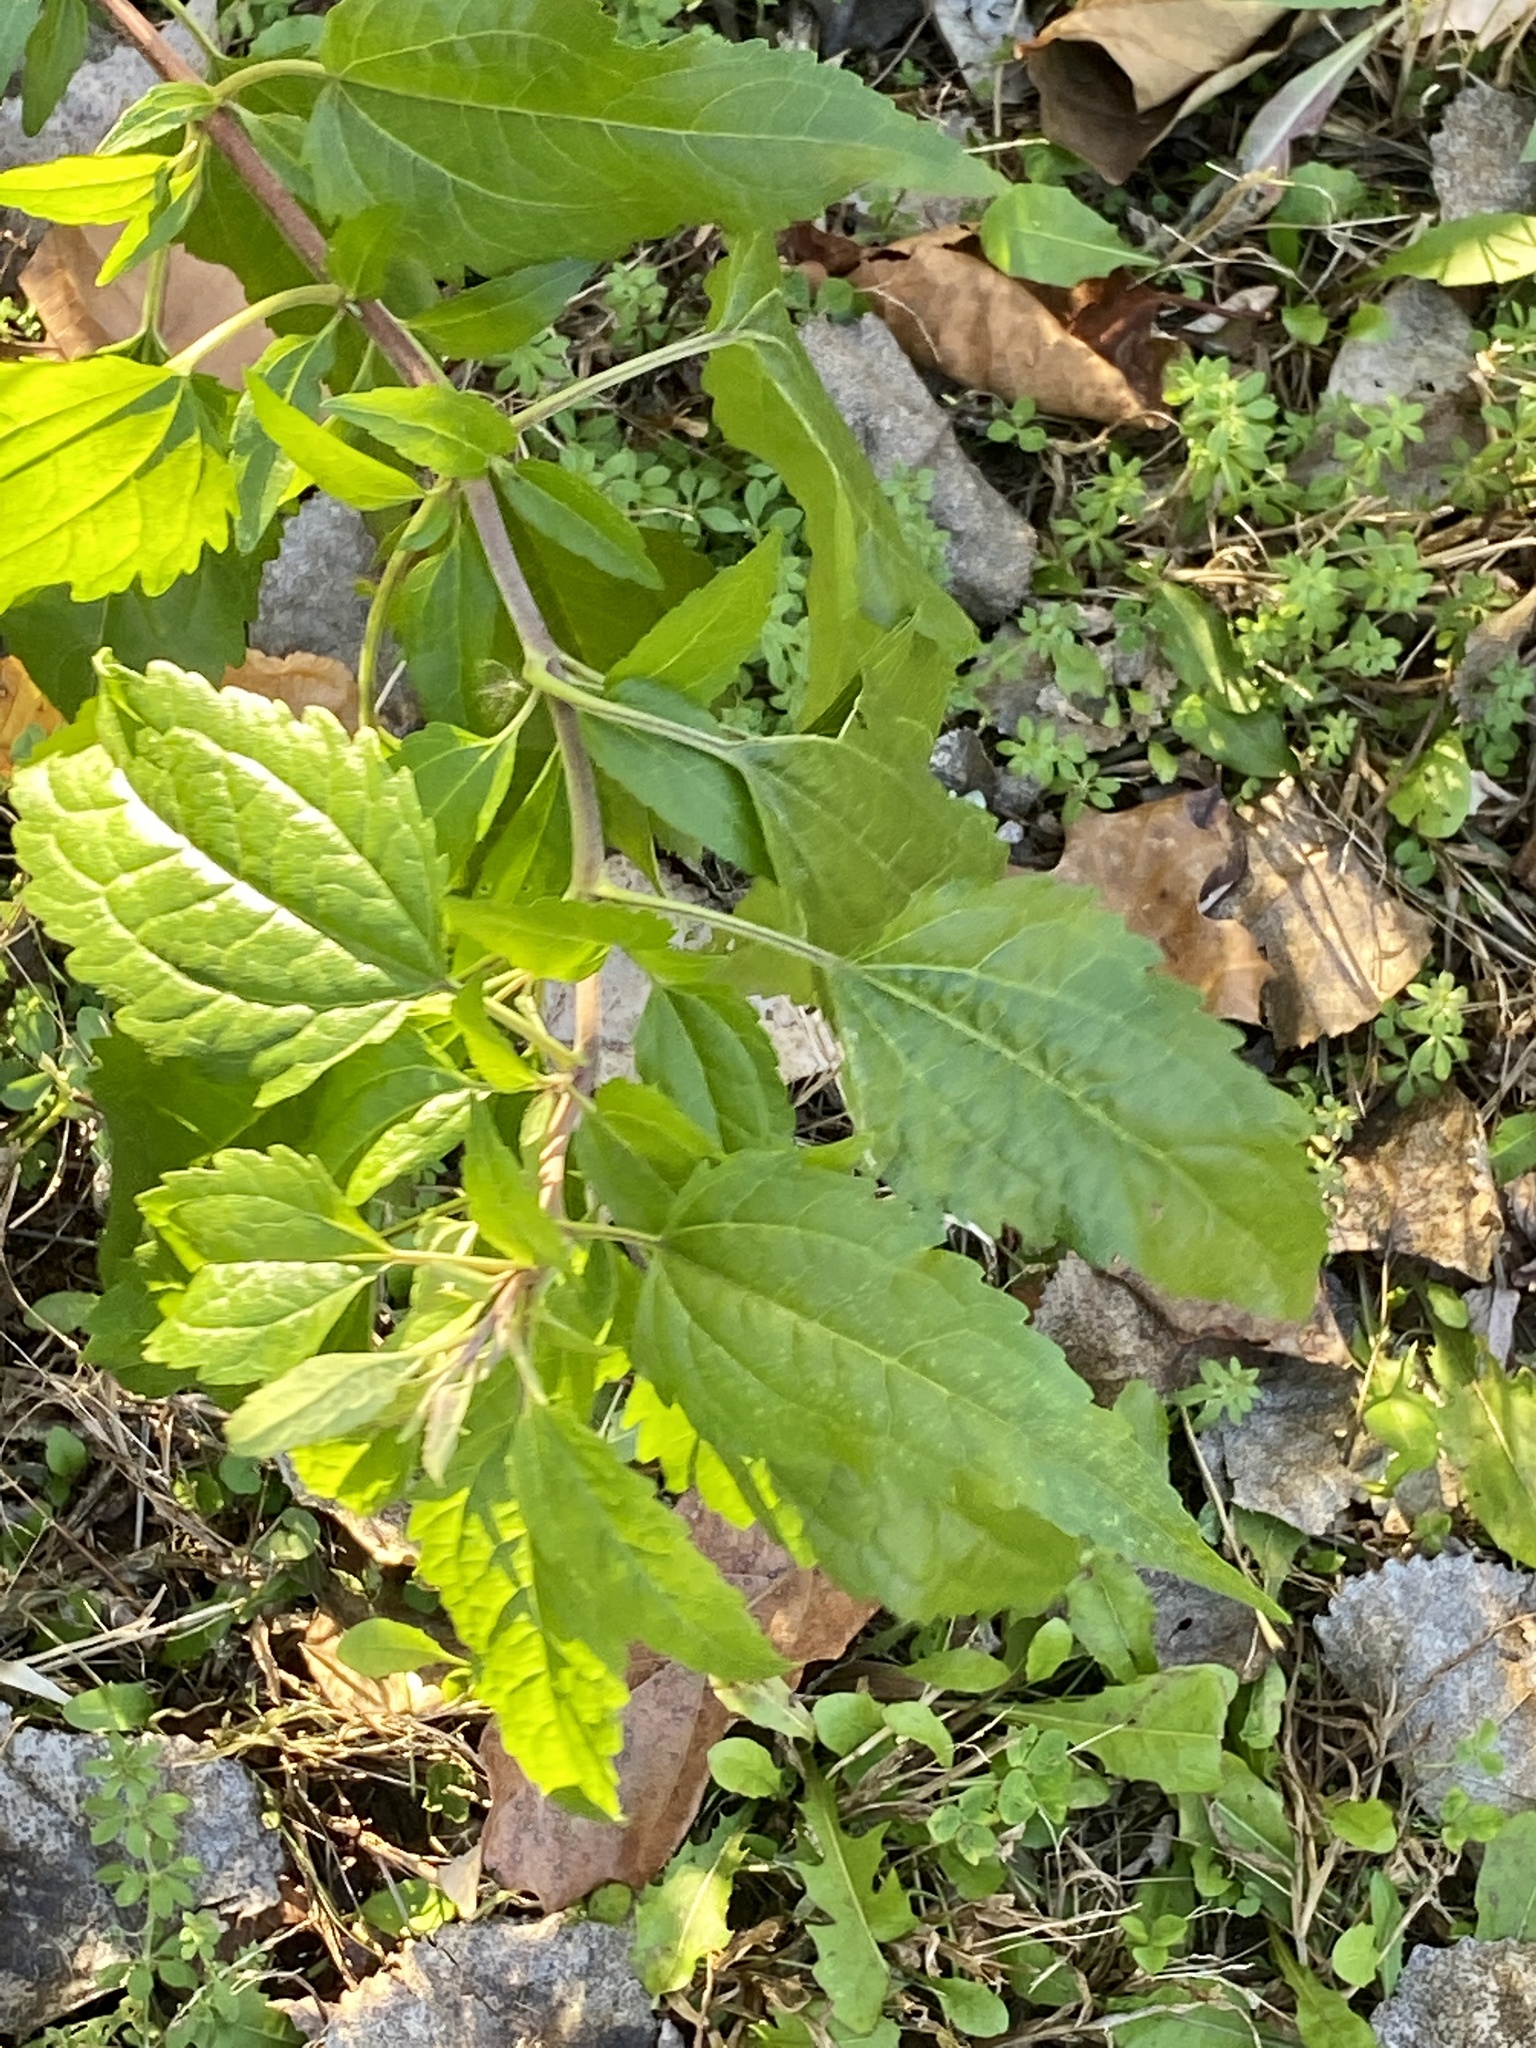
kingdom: Plantae
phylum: Tracheophyta
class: Magnoliopsida
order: Asterales
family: Asteraceae
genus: Eupatorium
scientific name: Eupatorium serotinum
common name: Late boneset
